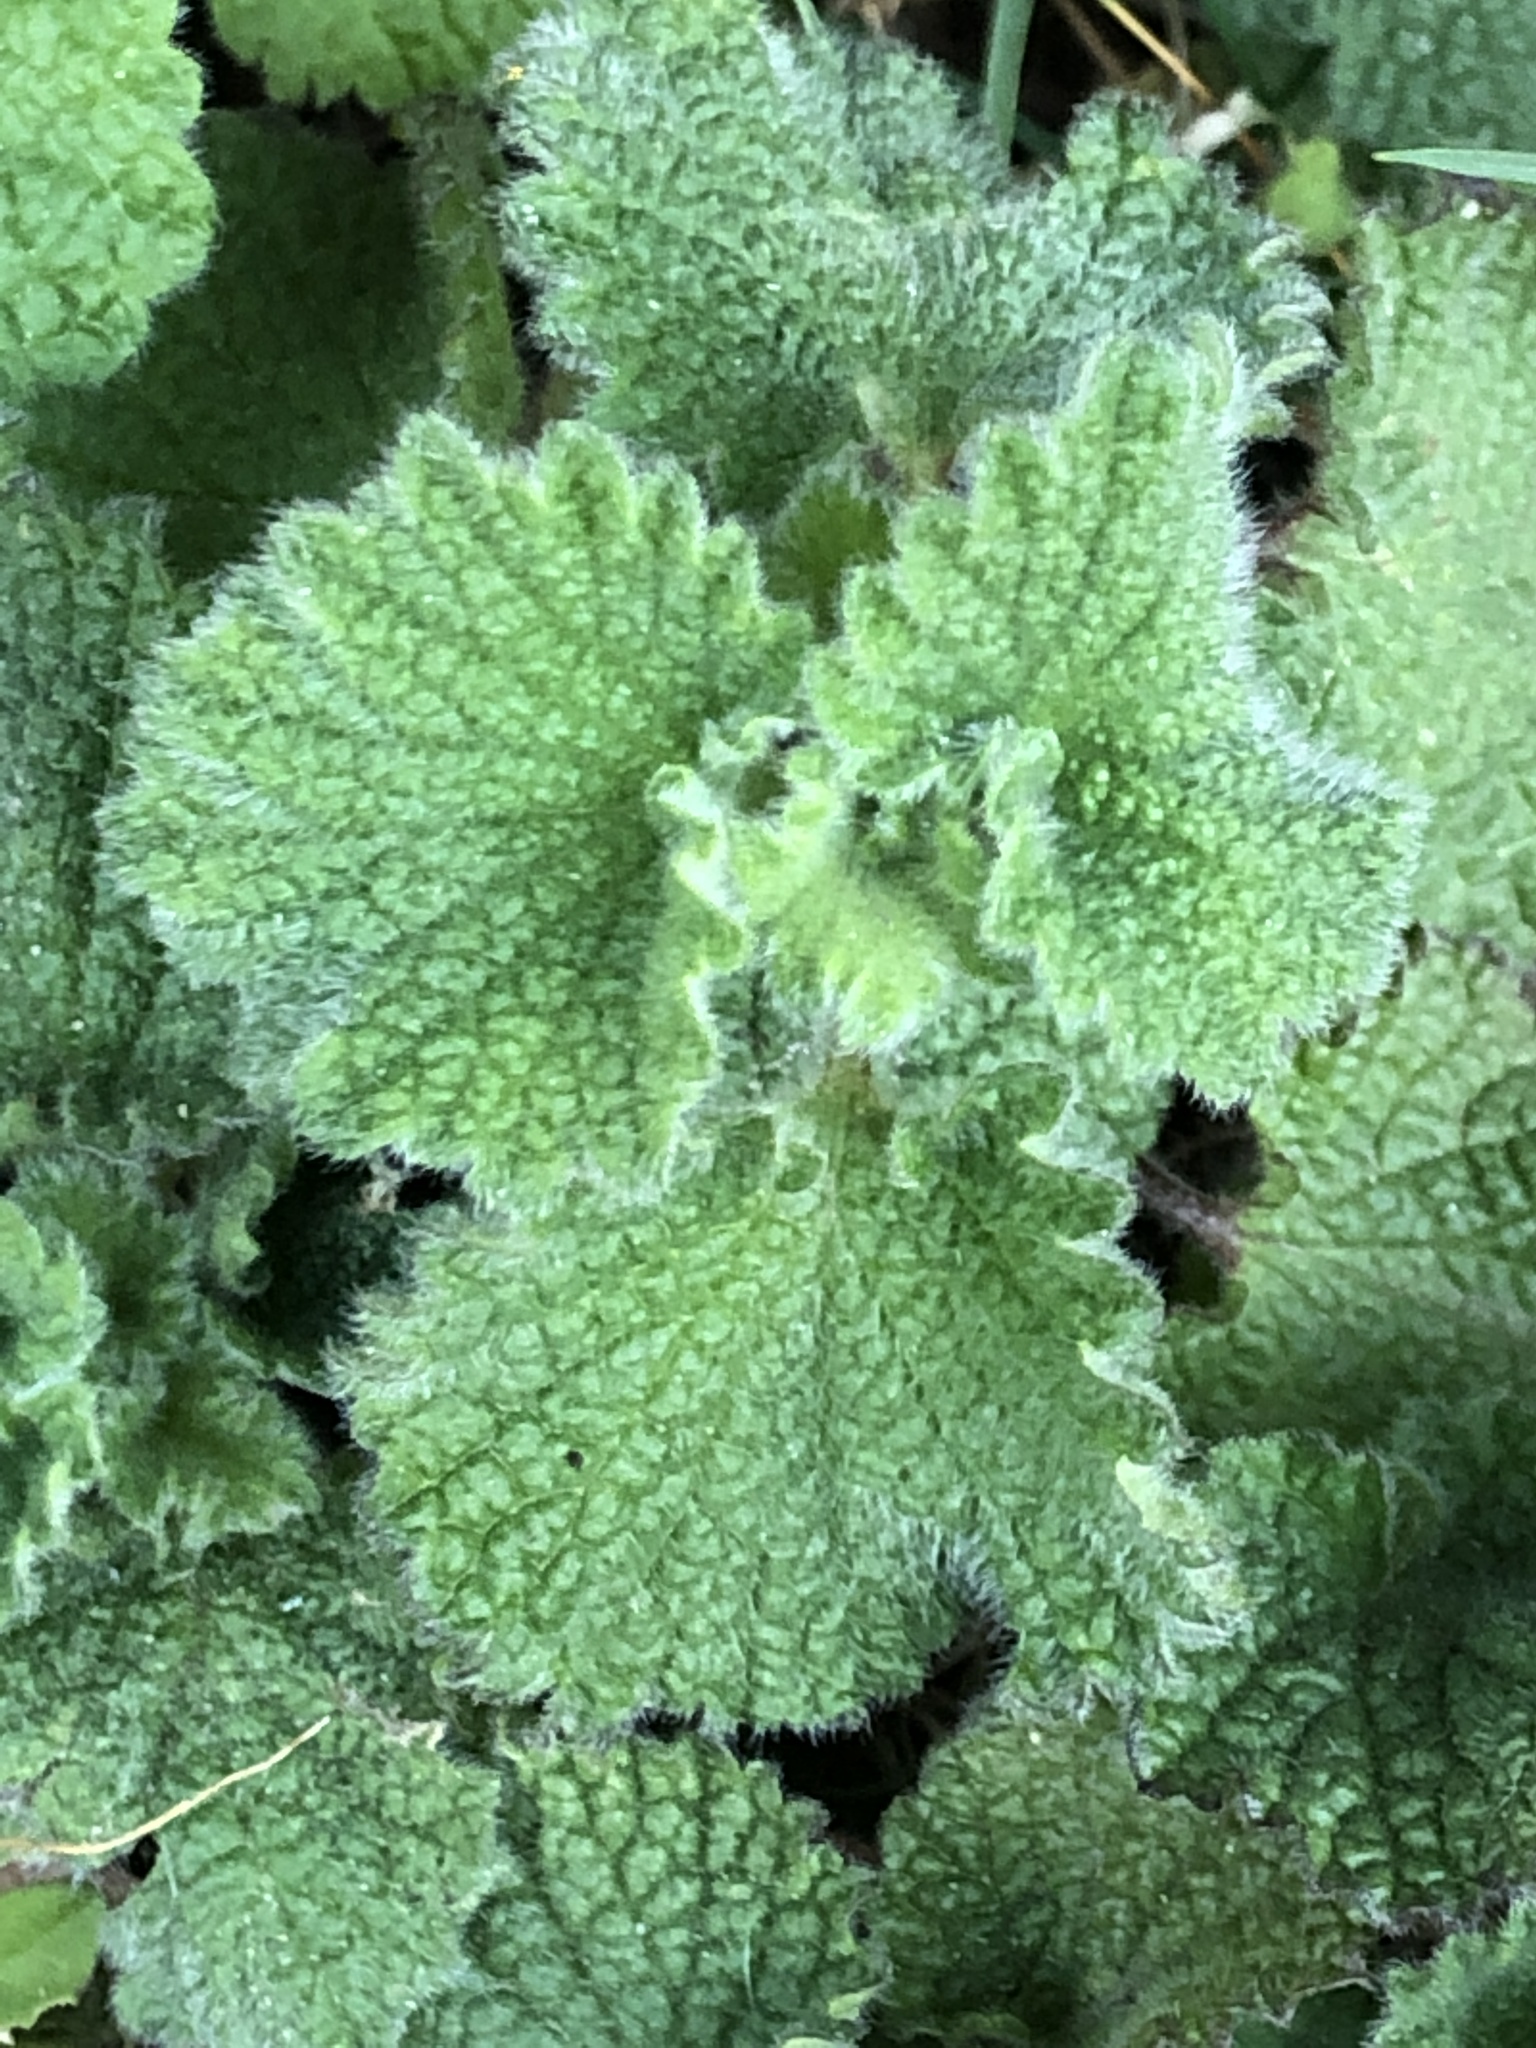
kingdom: Plantae
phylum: Tracheophyta
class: Magnoliopsida
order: Lamiales
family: Lamiaceae
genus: Ballota
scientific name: Ballota nigra
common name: Black horehound
